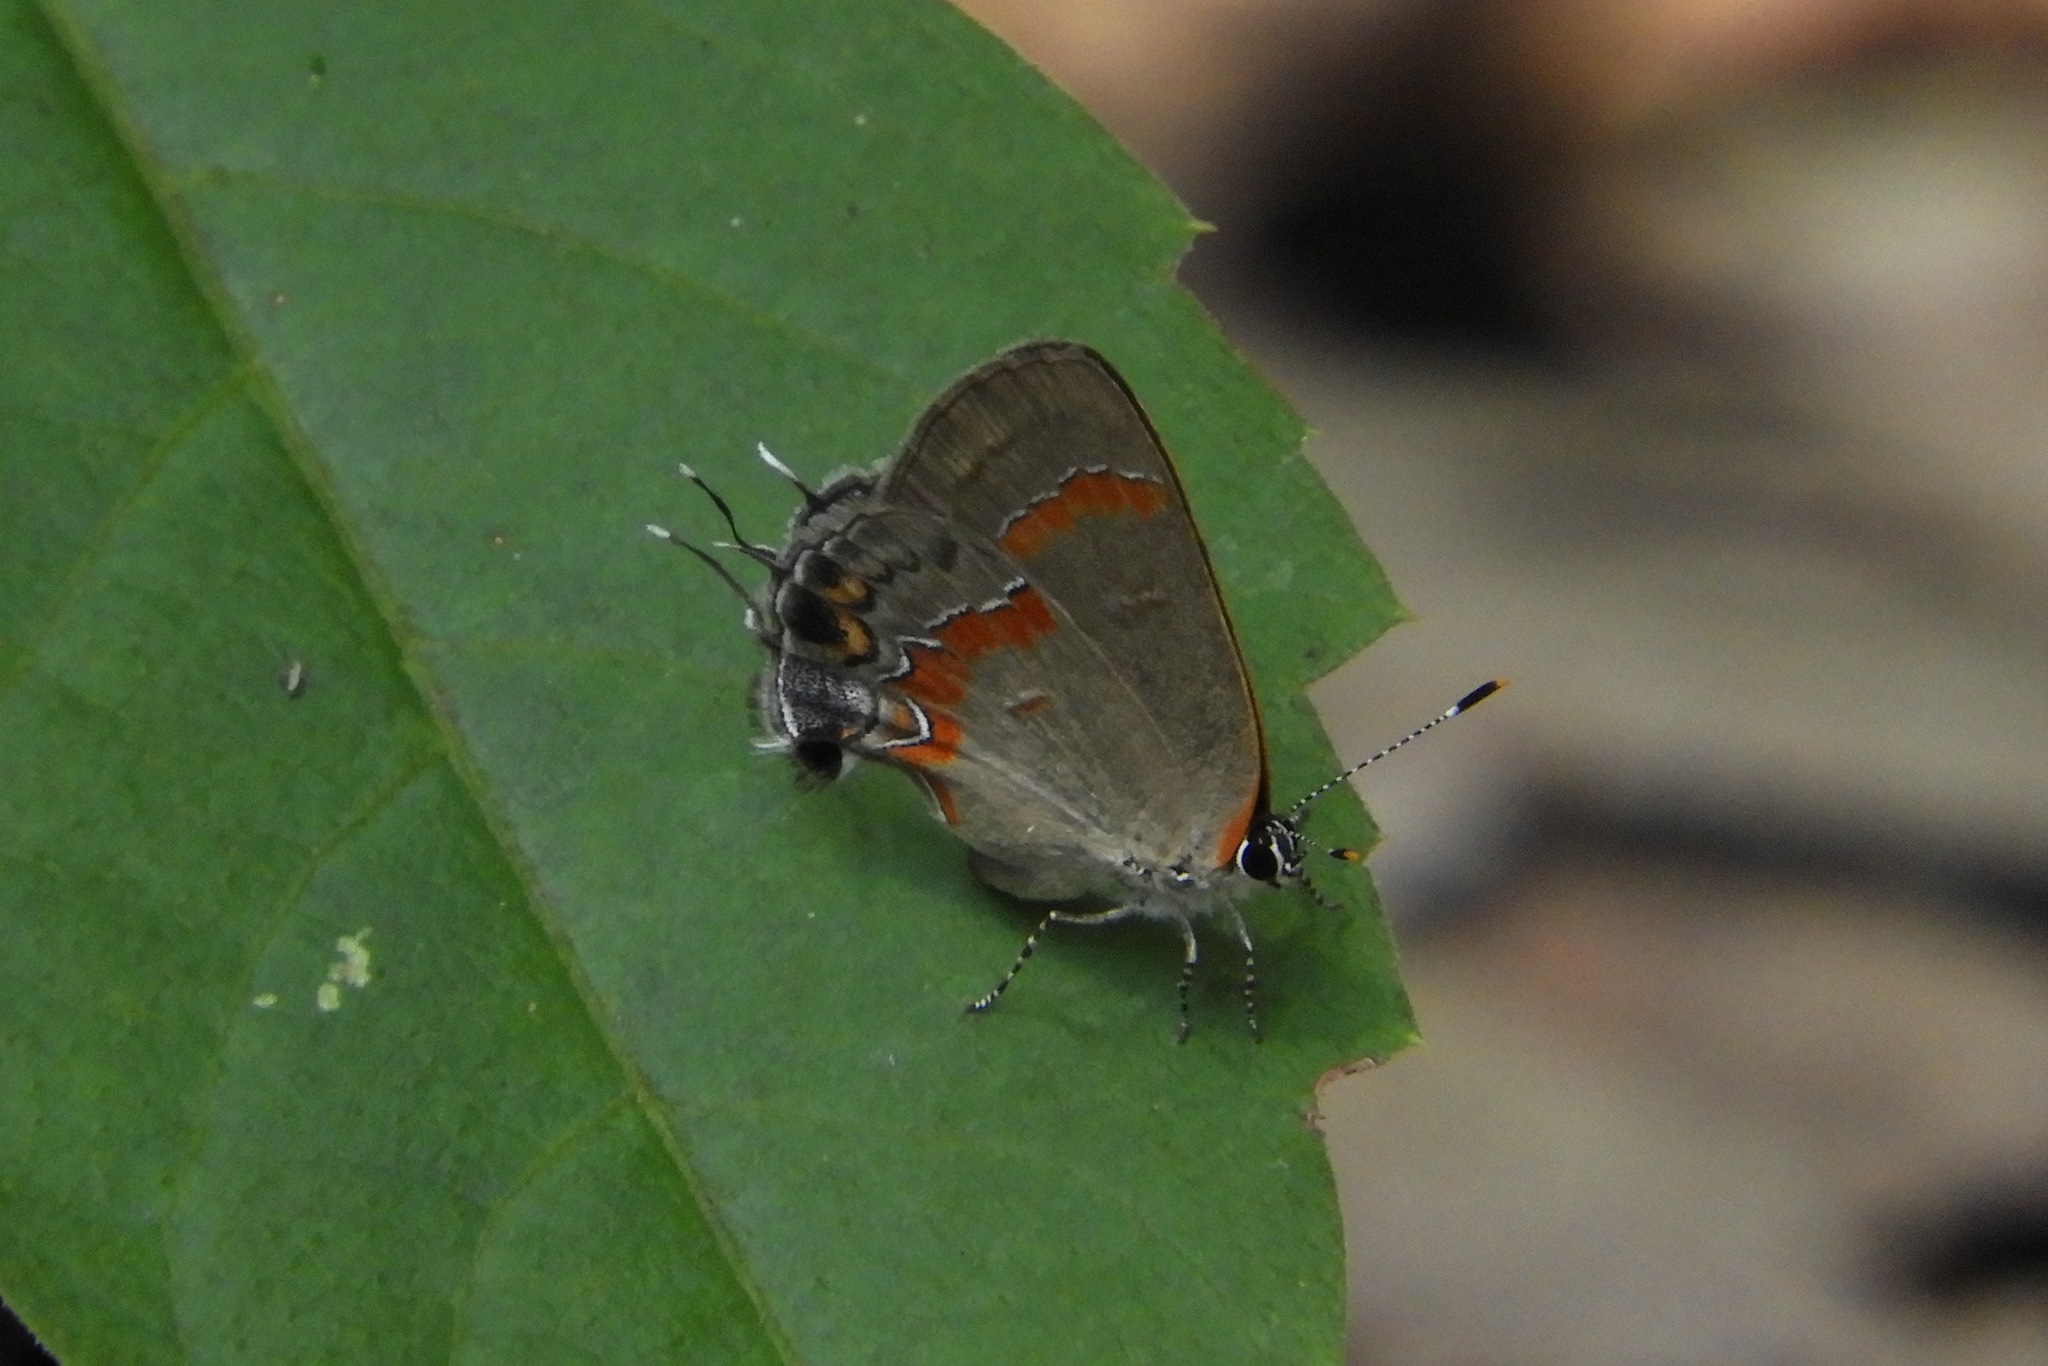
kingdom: Animalia
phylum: Arthropoda
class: Insecta
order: Lepidoptera
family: Lycaenidae
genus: Calycopis
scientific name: Calycopis cecrops
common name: Red-banded hairstreak
